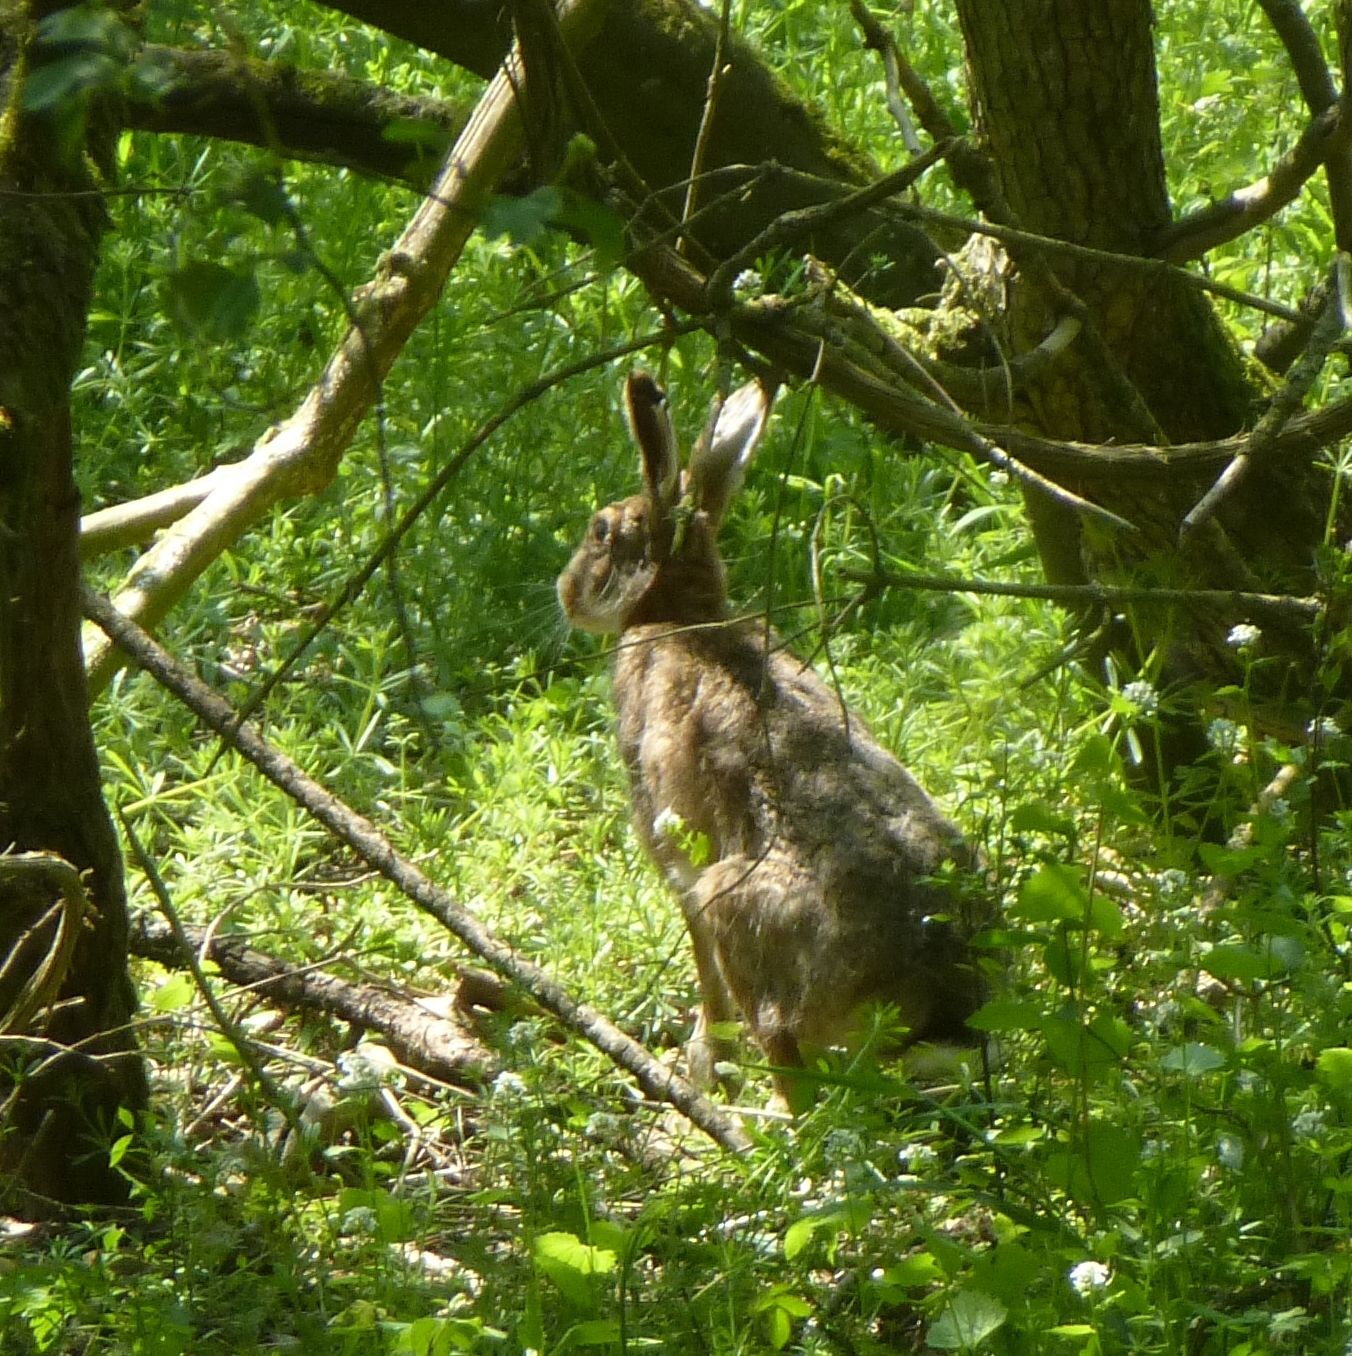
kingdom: Animalia
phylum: Chordata
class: Mammalia
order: Lagomorpha
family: Leporidae
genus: Lepus
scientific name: Lepus europaeus
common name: European hare
